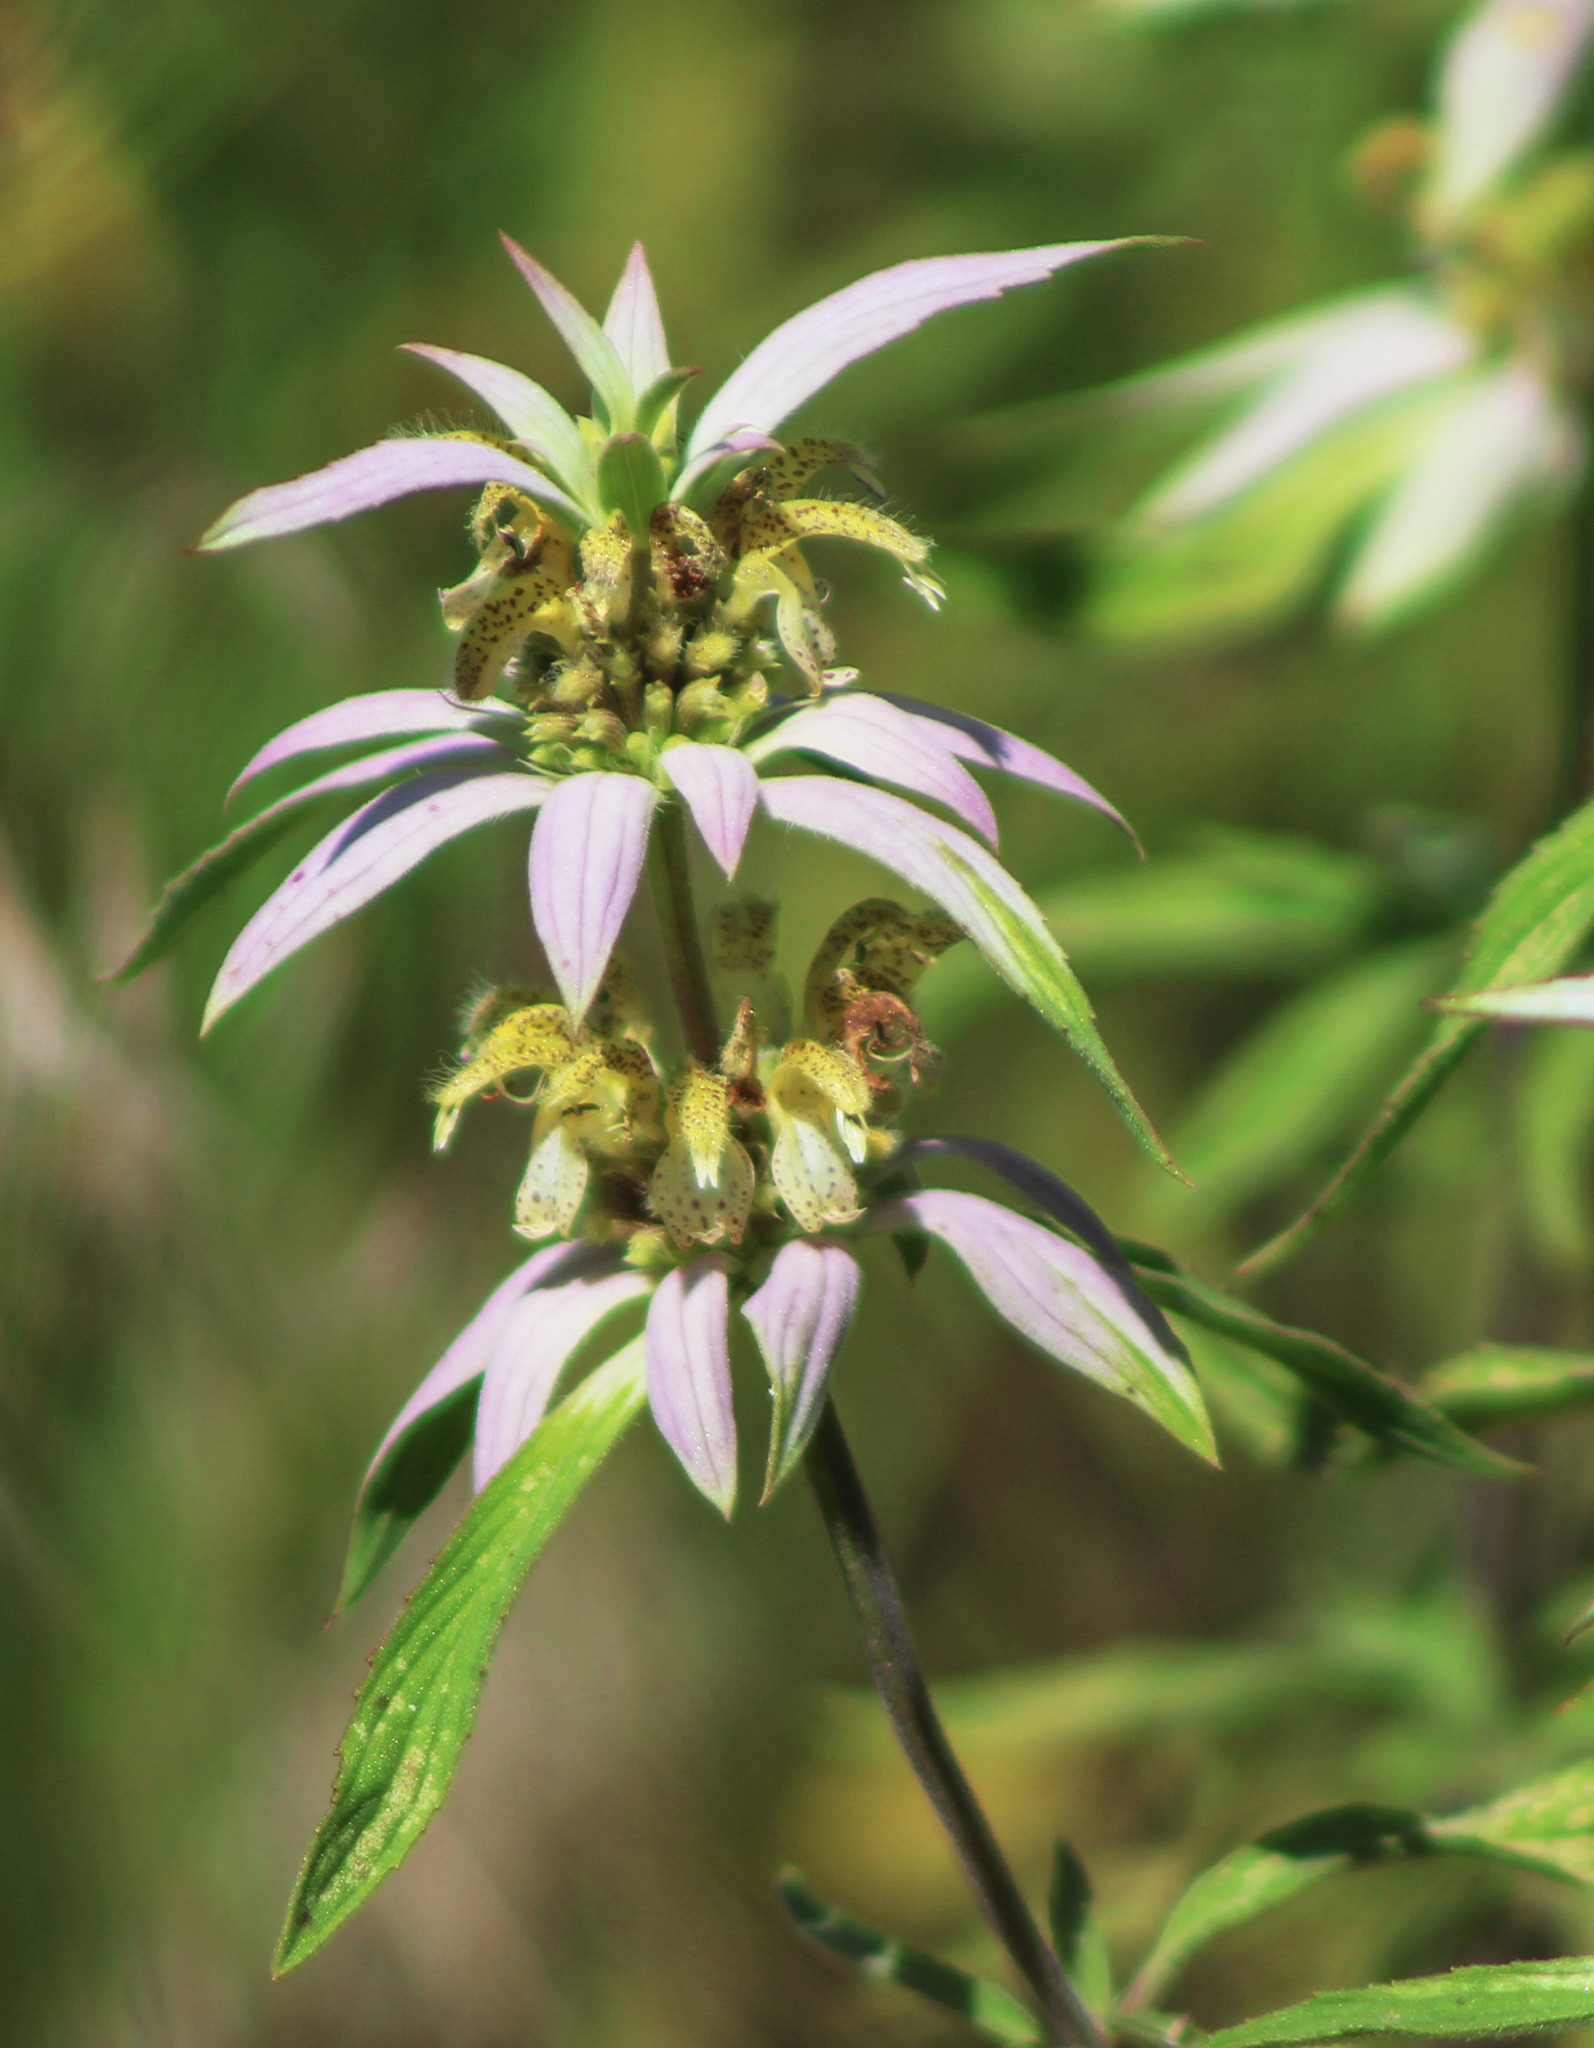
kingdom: Plantae
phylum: Tracheophyta
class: Magnoliopsida
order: Lamiales
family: Lamiaceae
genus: Monarda
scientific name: Monarda punctata
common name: Dotted monarda
